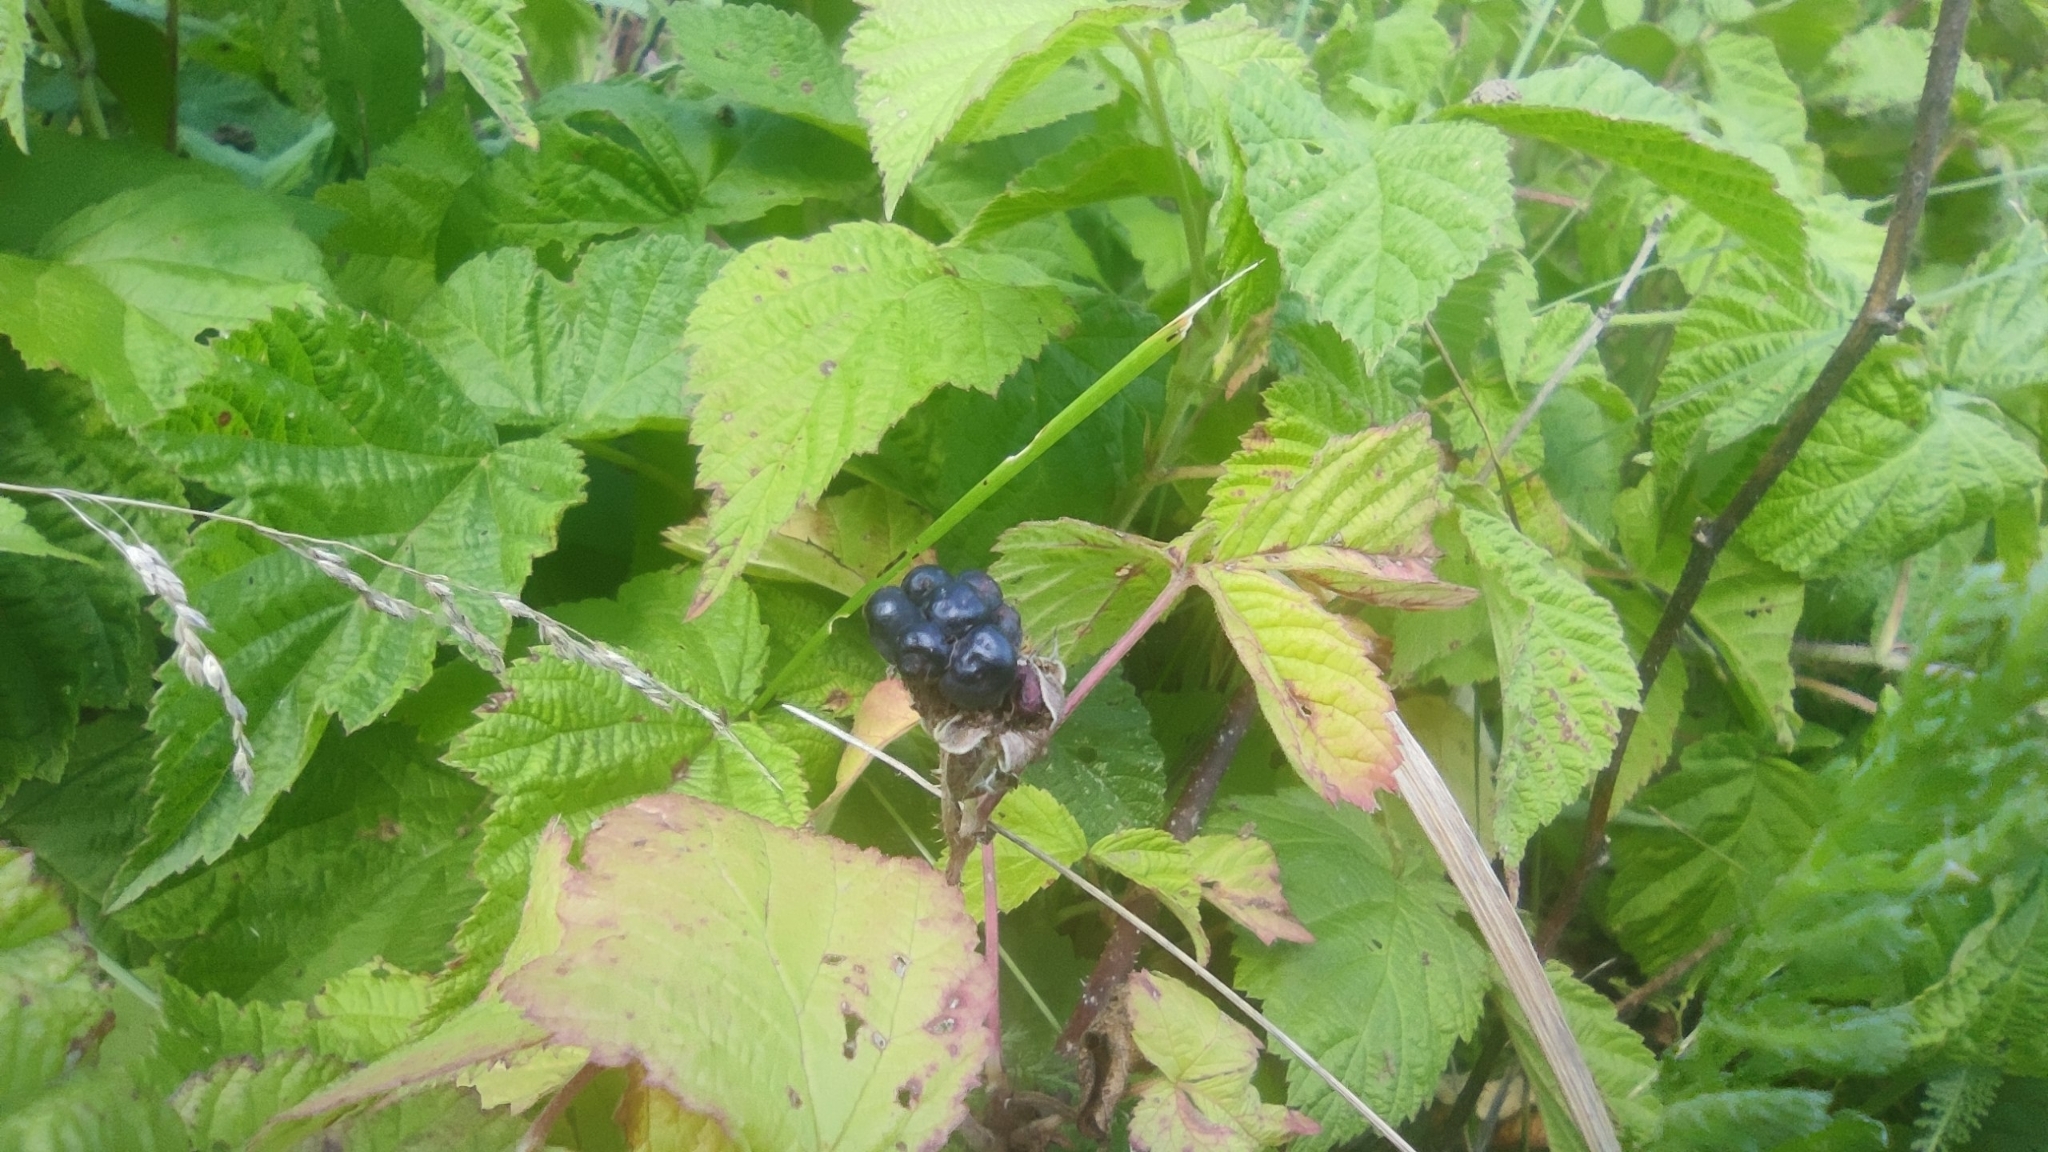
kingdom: Plantae
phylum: Tracheophyta
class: Magnoliopsida
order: Rosales
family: Rosaceae
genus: Rubus
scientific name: Rubus caesius
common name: Dewberry
